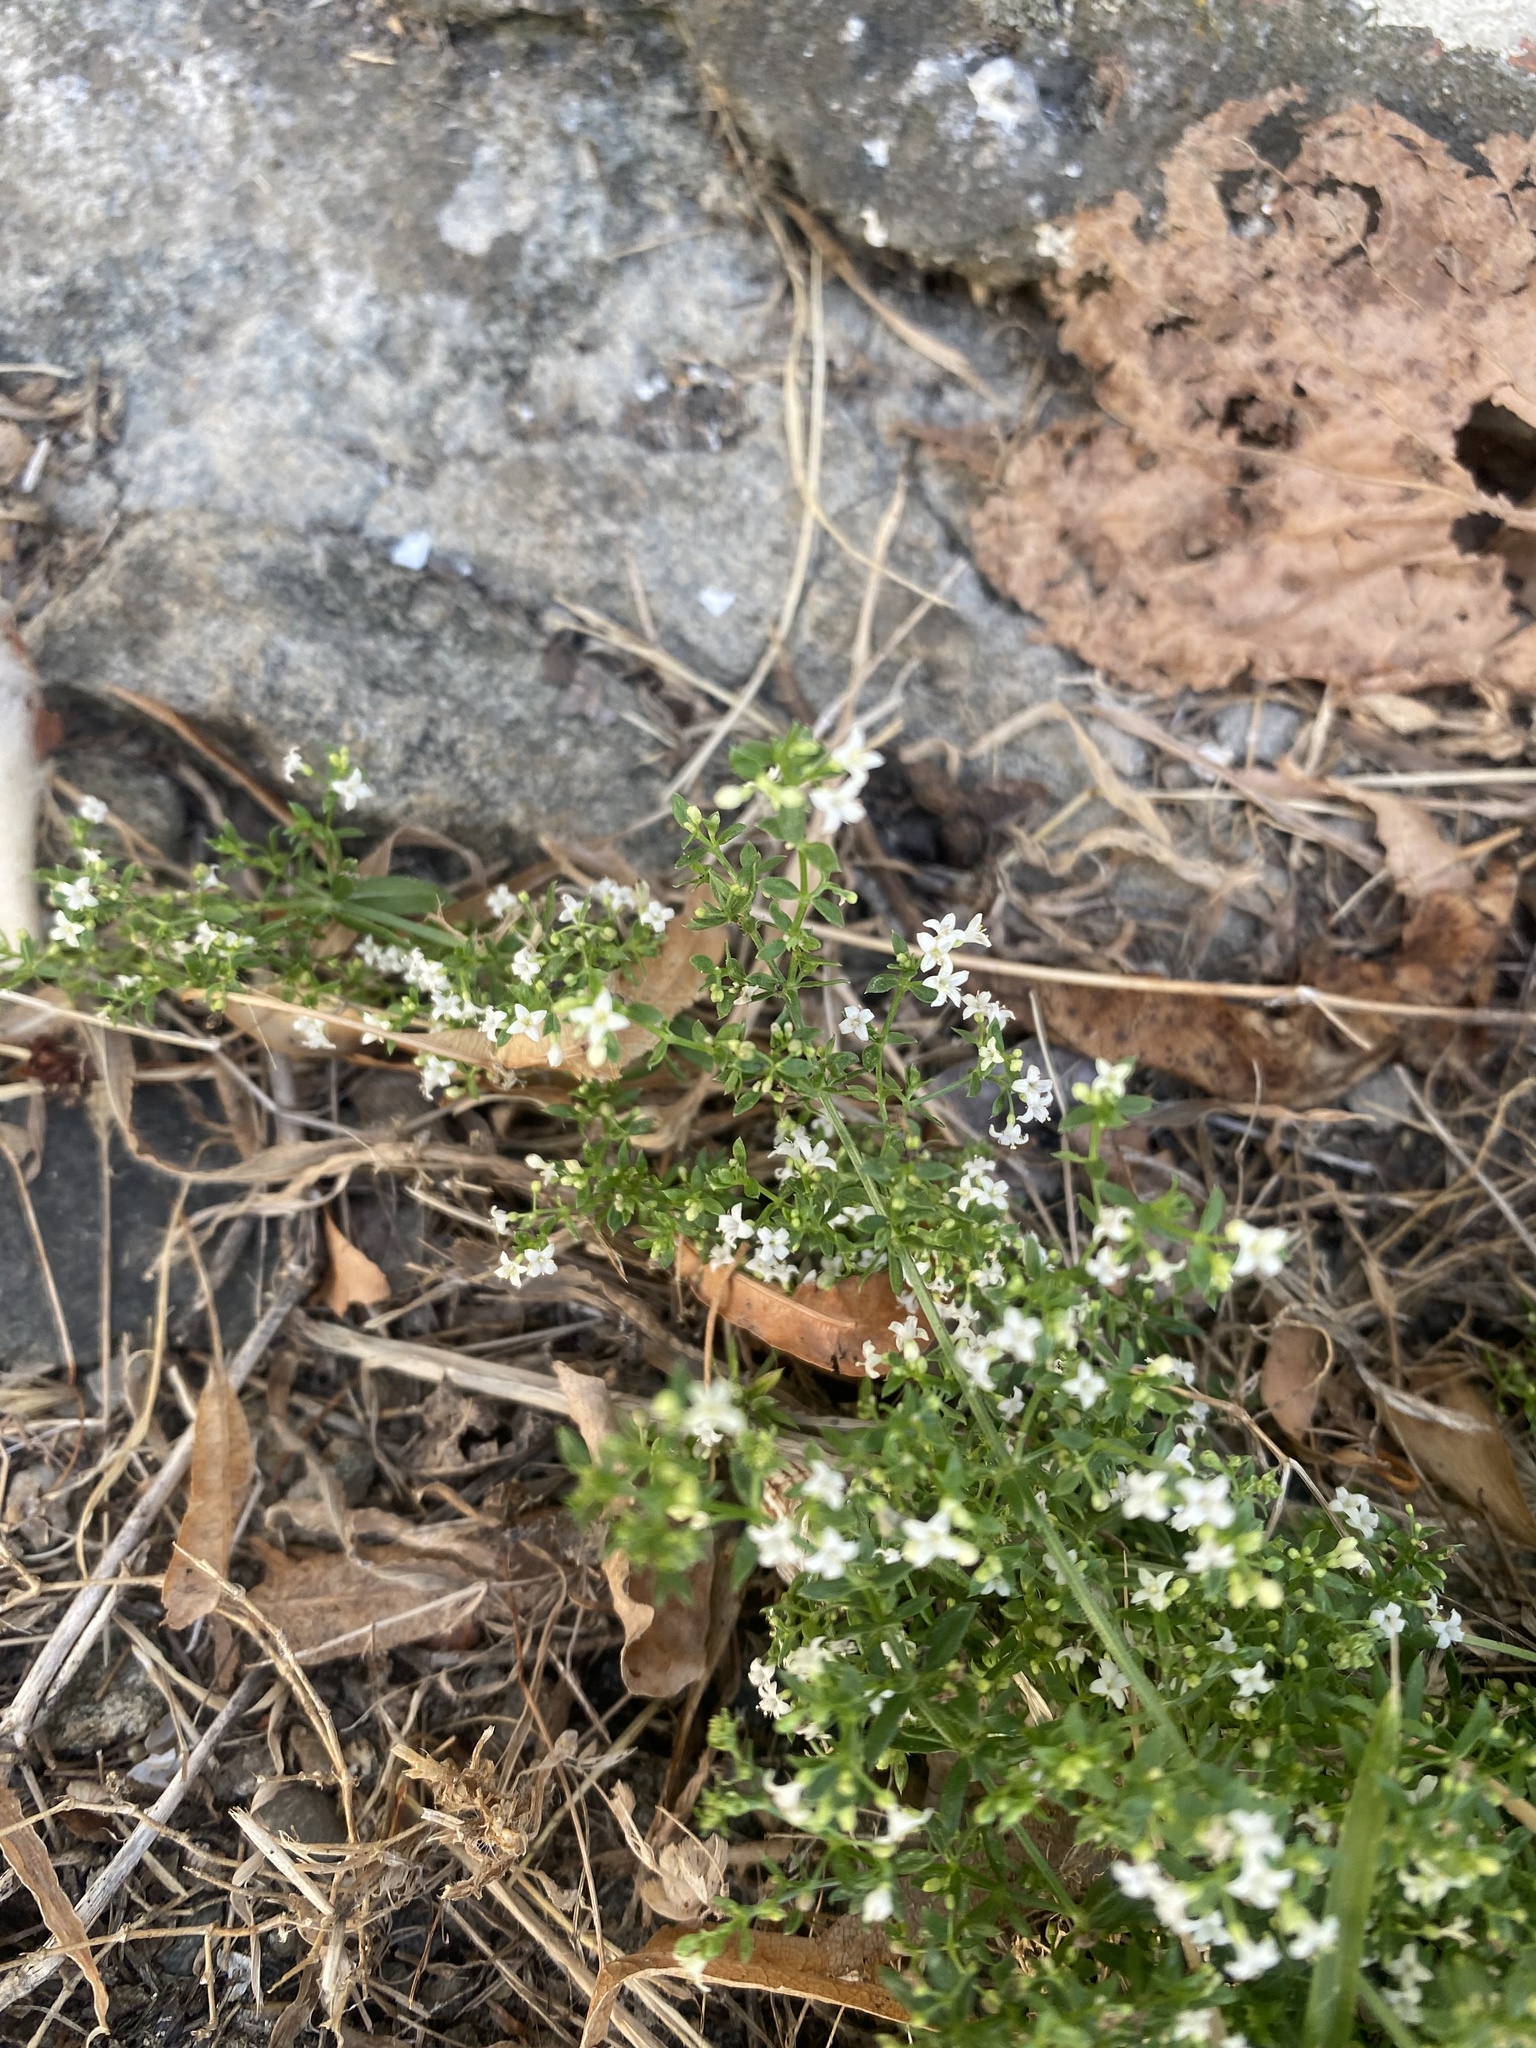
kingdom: Plantae
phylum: Tracheophyta
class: Magnoliopsida
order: Gentianales
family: Rubiaceae
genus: Galium
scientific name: Galium humifusum
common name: Spreading bedstraw
